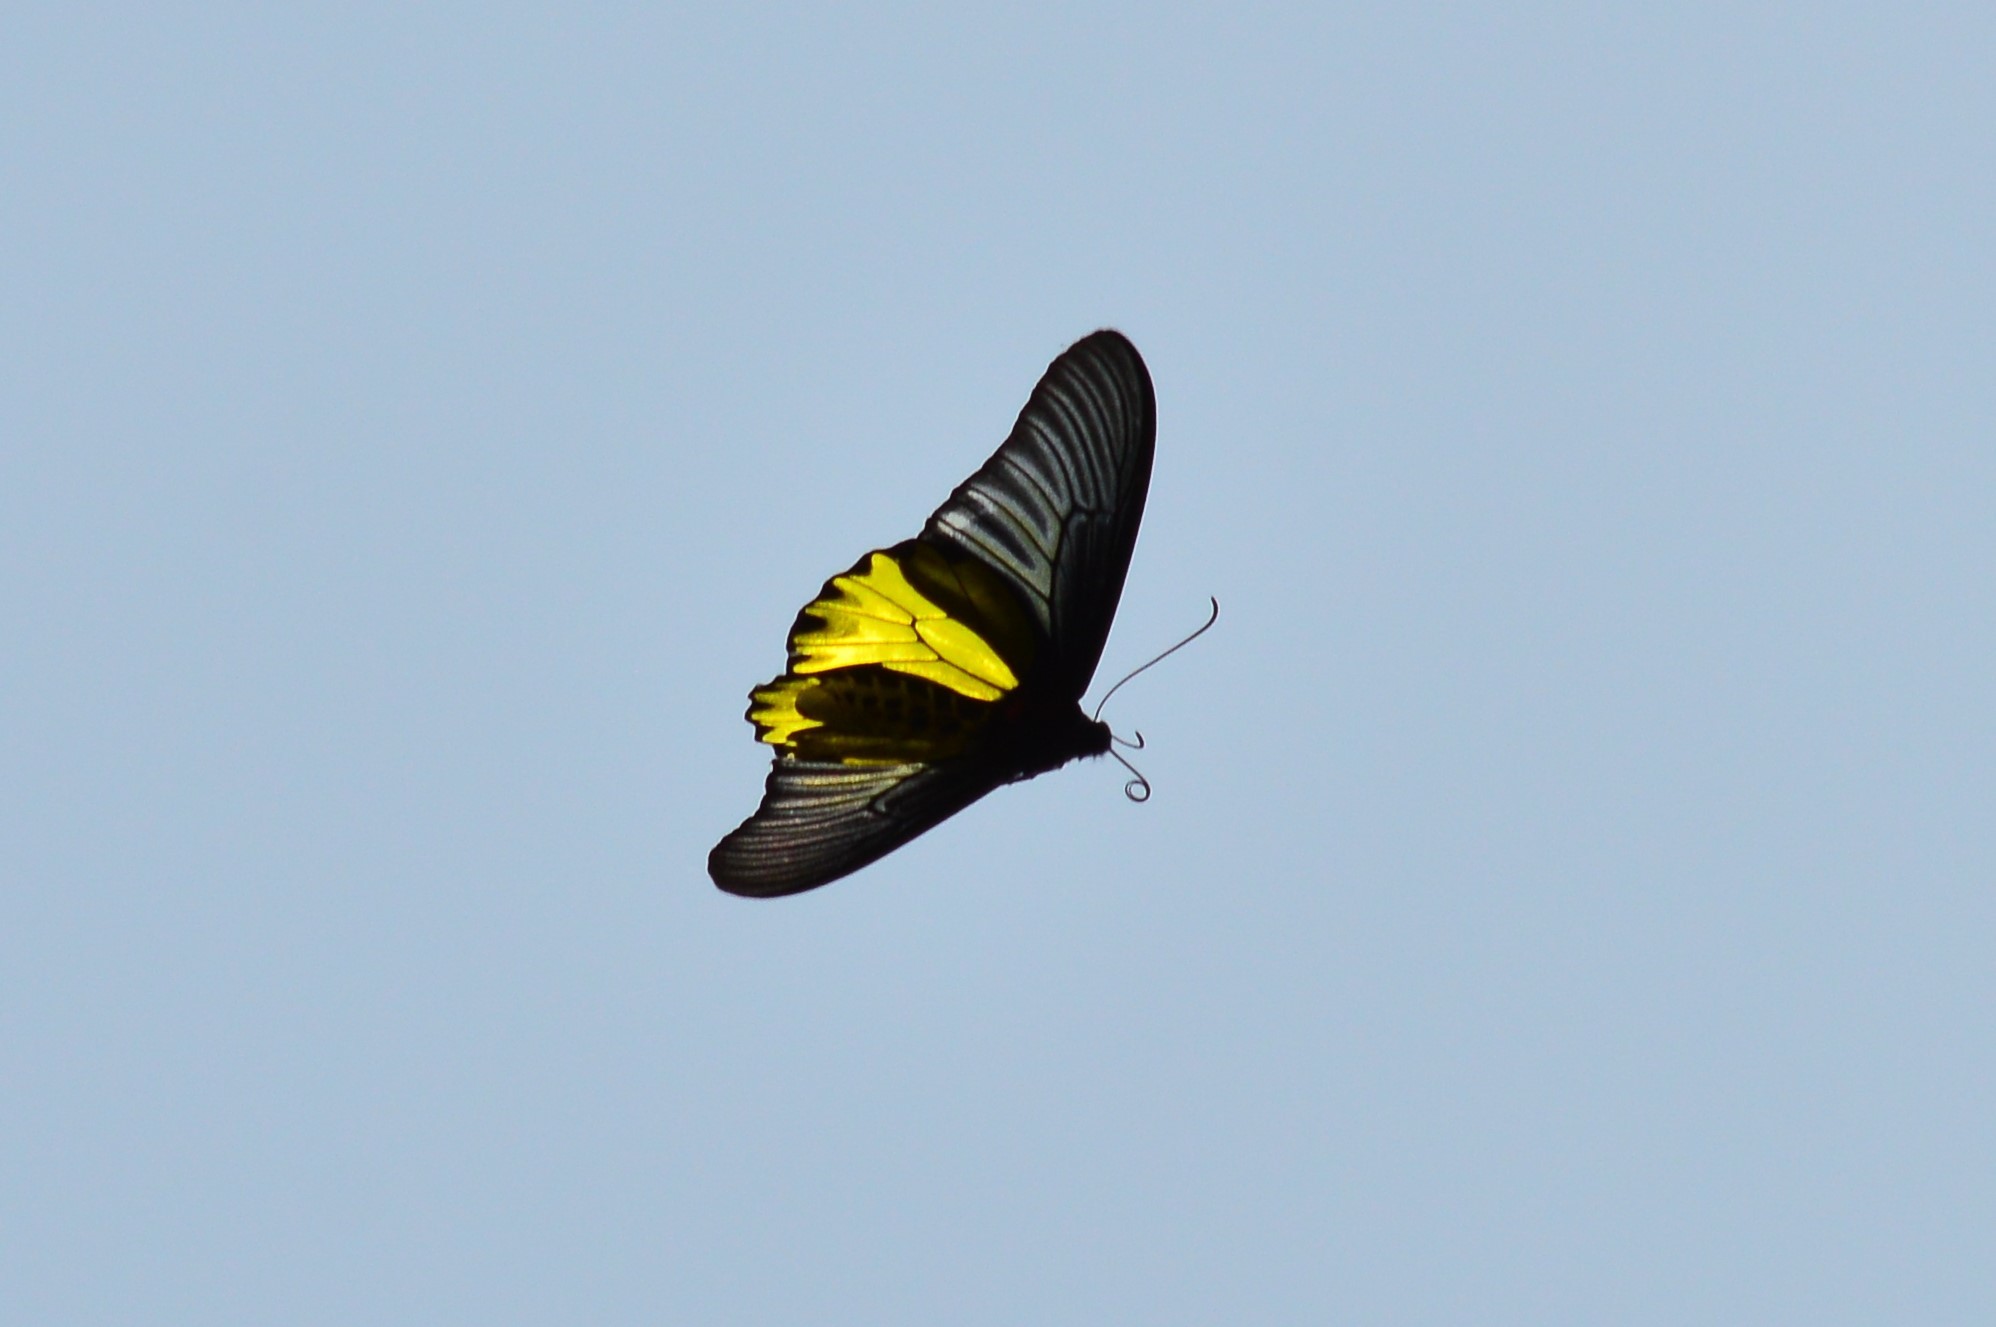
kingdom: Animalia
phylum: Arthropoda
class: Insecta
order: Lepidoptera
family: Papilionidae
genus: Troides
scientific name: Troides aeacus
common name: Golden birdwing
